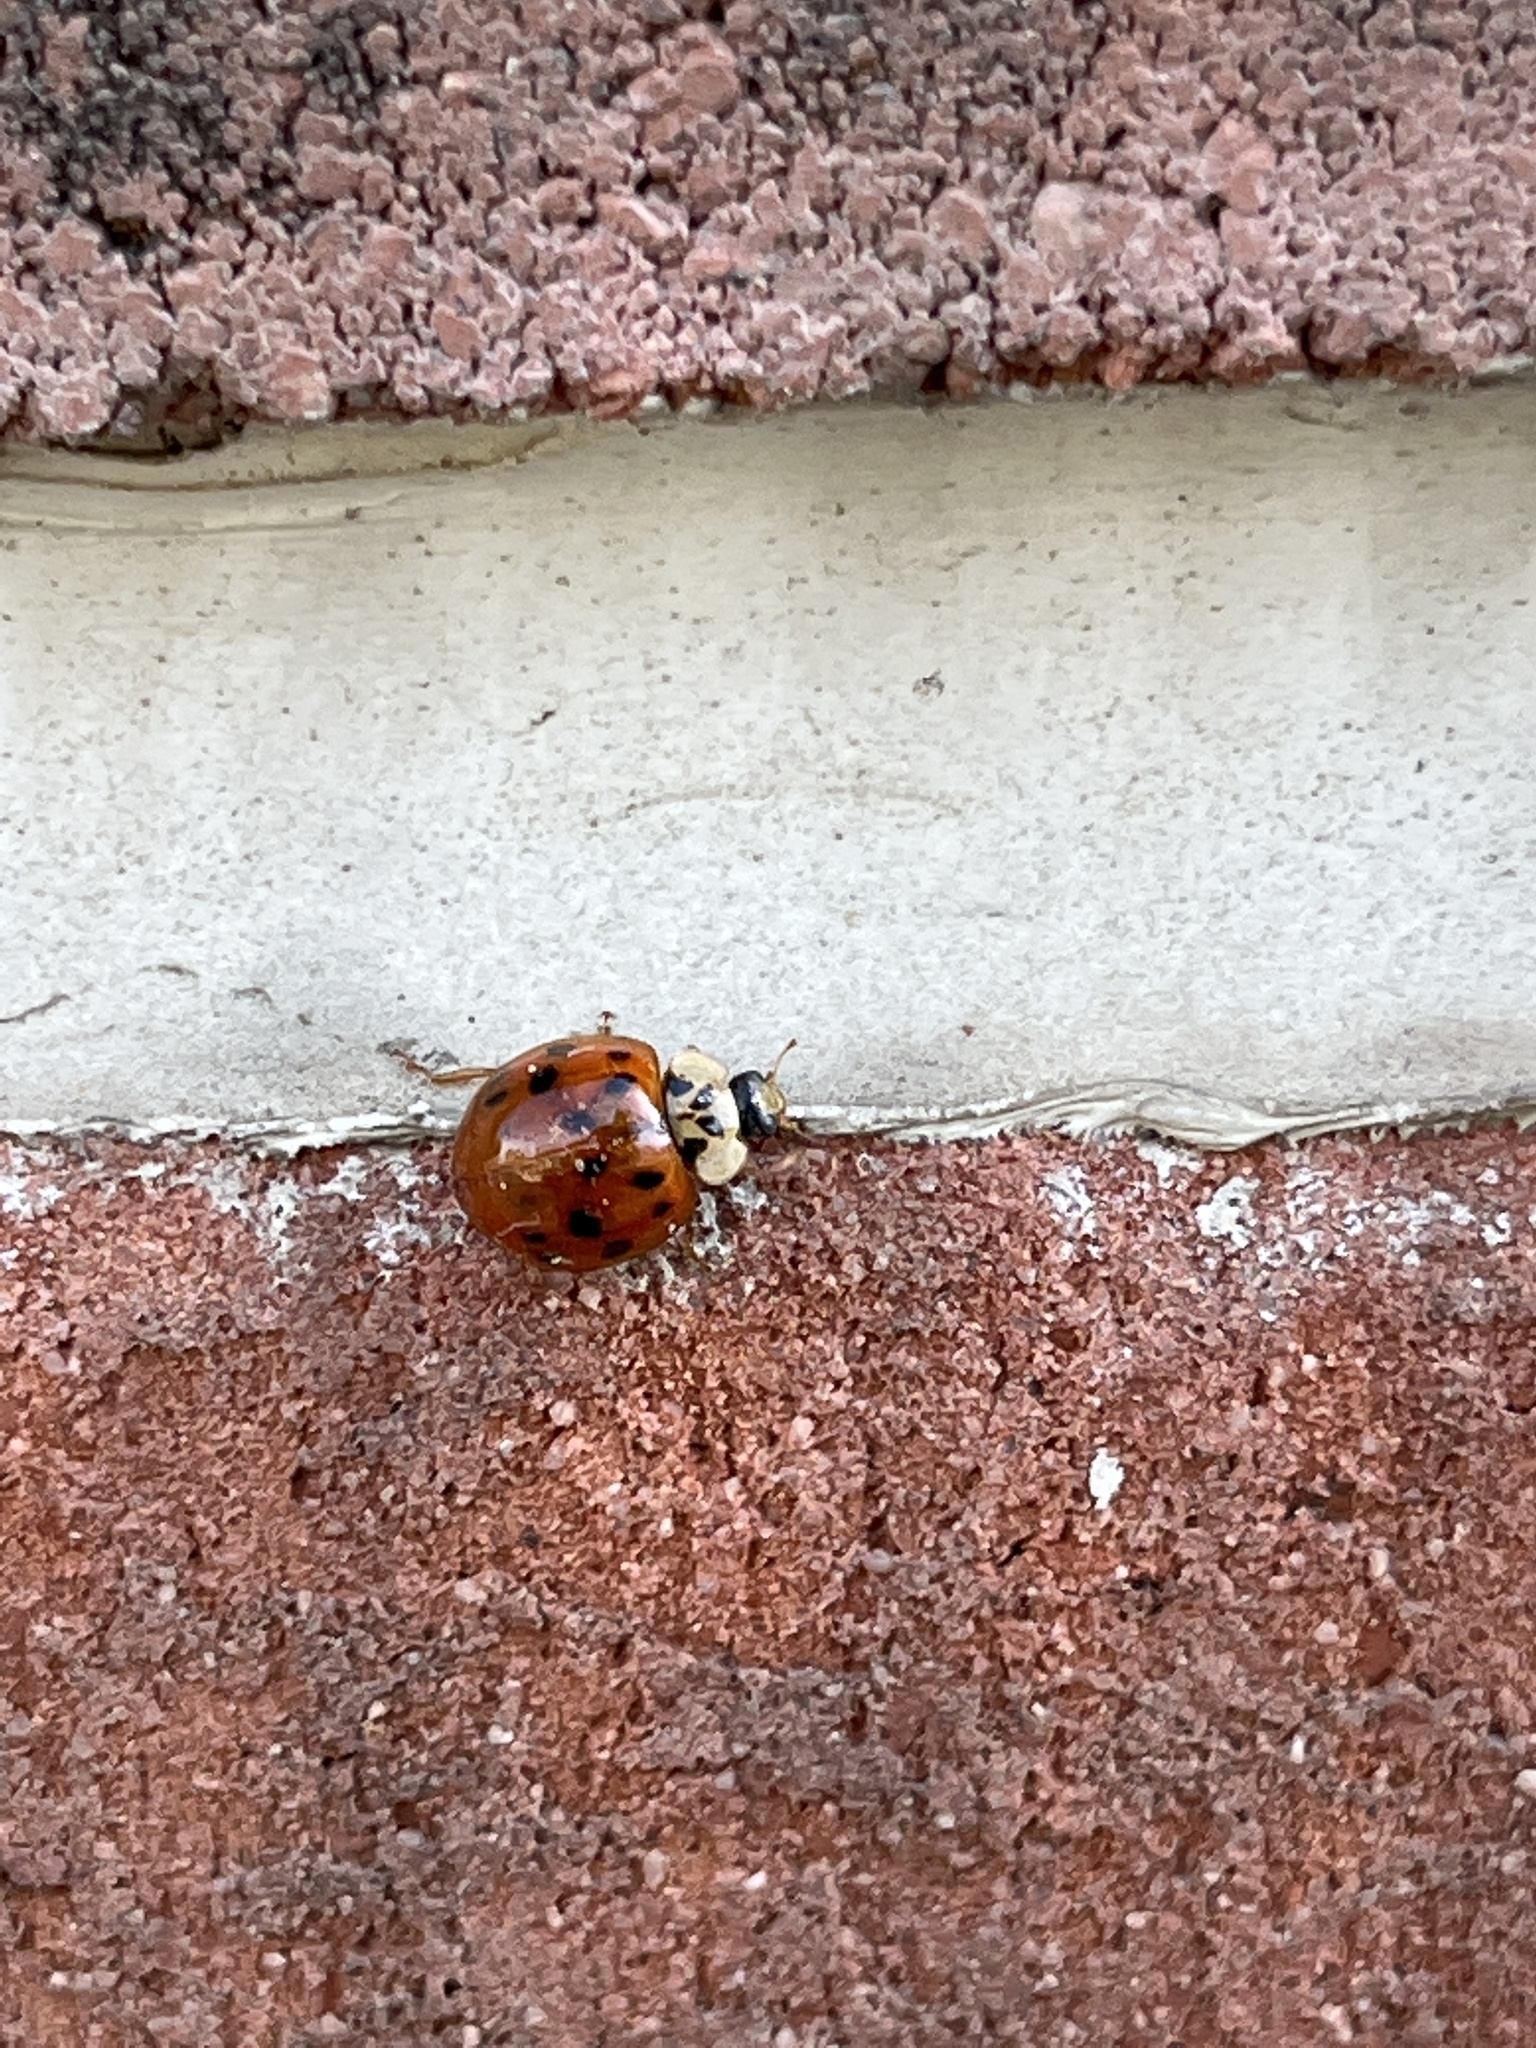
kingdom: Animalia
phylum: Arthropoda
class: Insecta
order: Coleoptera
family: Coccinellidae
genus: Harmonia
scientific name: Harmonia axyridis
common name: Harlequin ladybird
